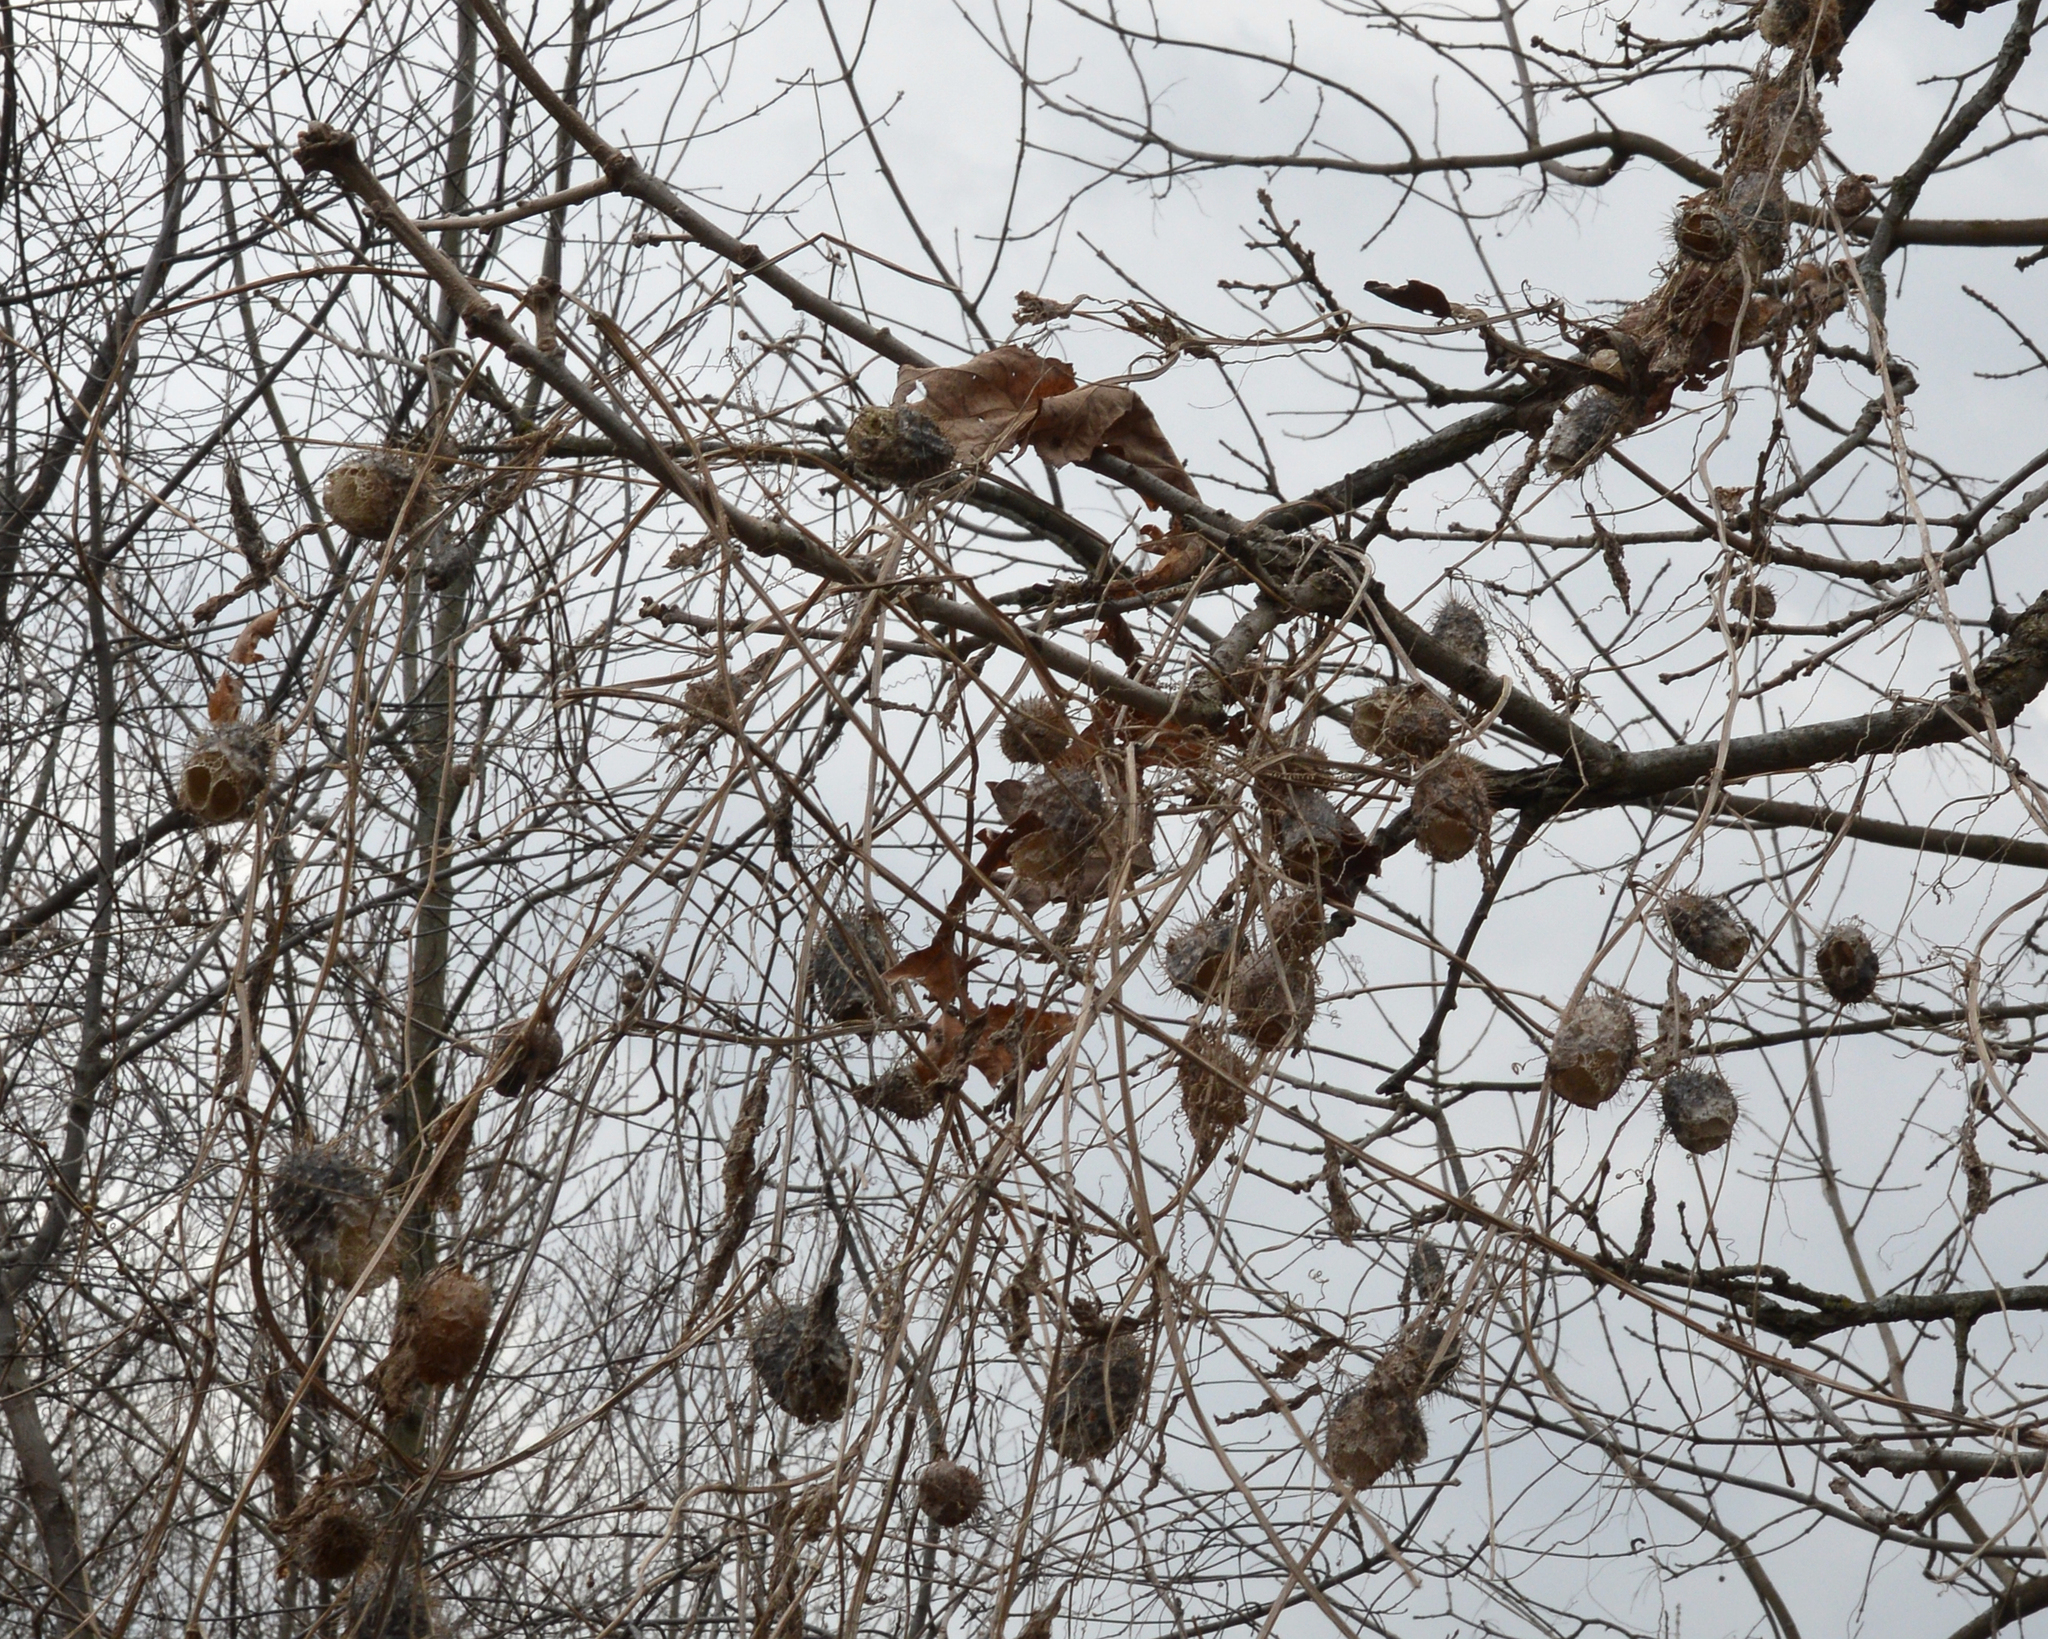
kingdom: Plantae
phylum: Tracheophyta
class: Magnoliopsida
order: Cucurbitales
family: Cucurbitaceae
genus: Echinocystis
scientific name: Echinocystis lobata
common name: Wild cucumber
